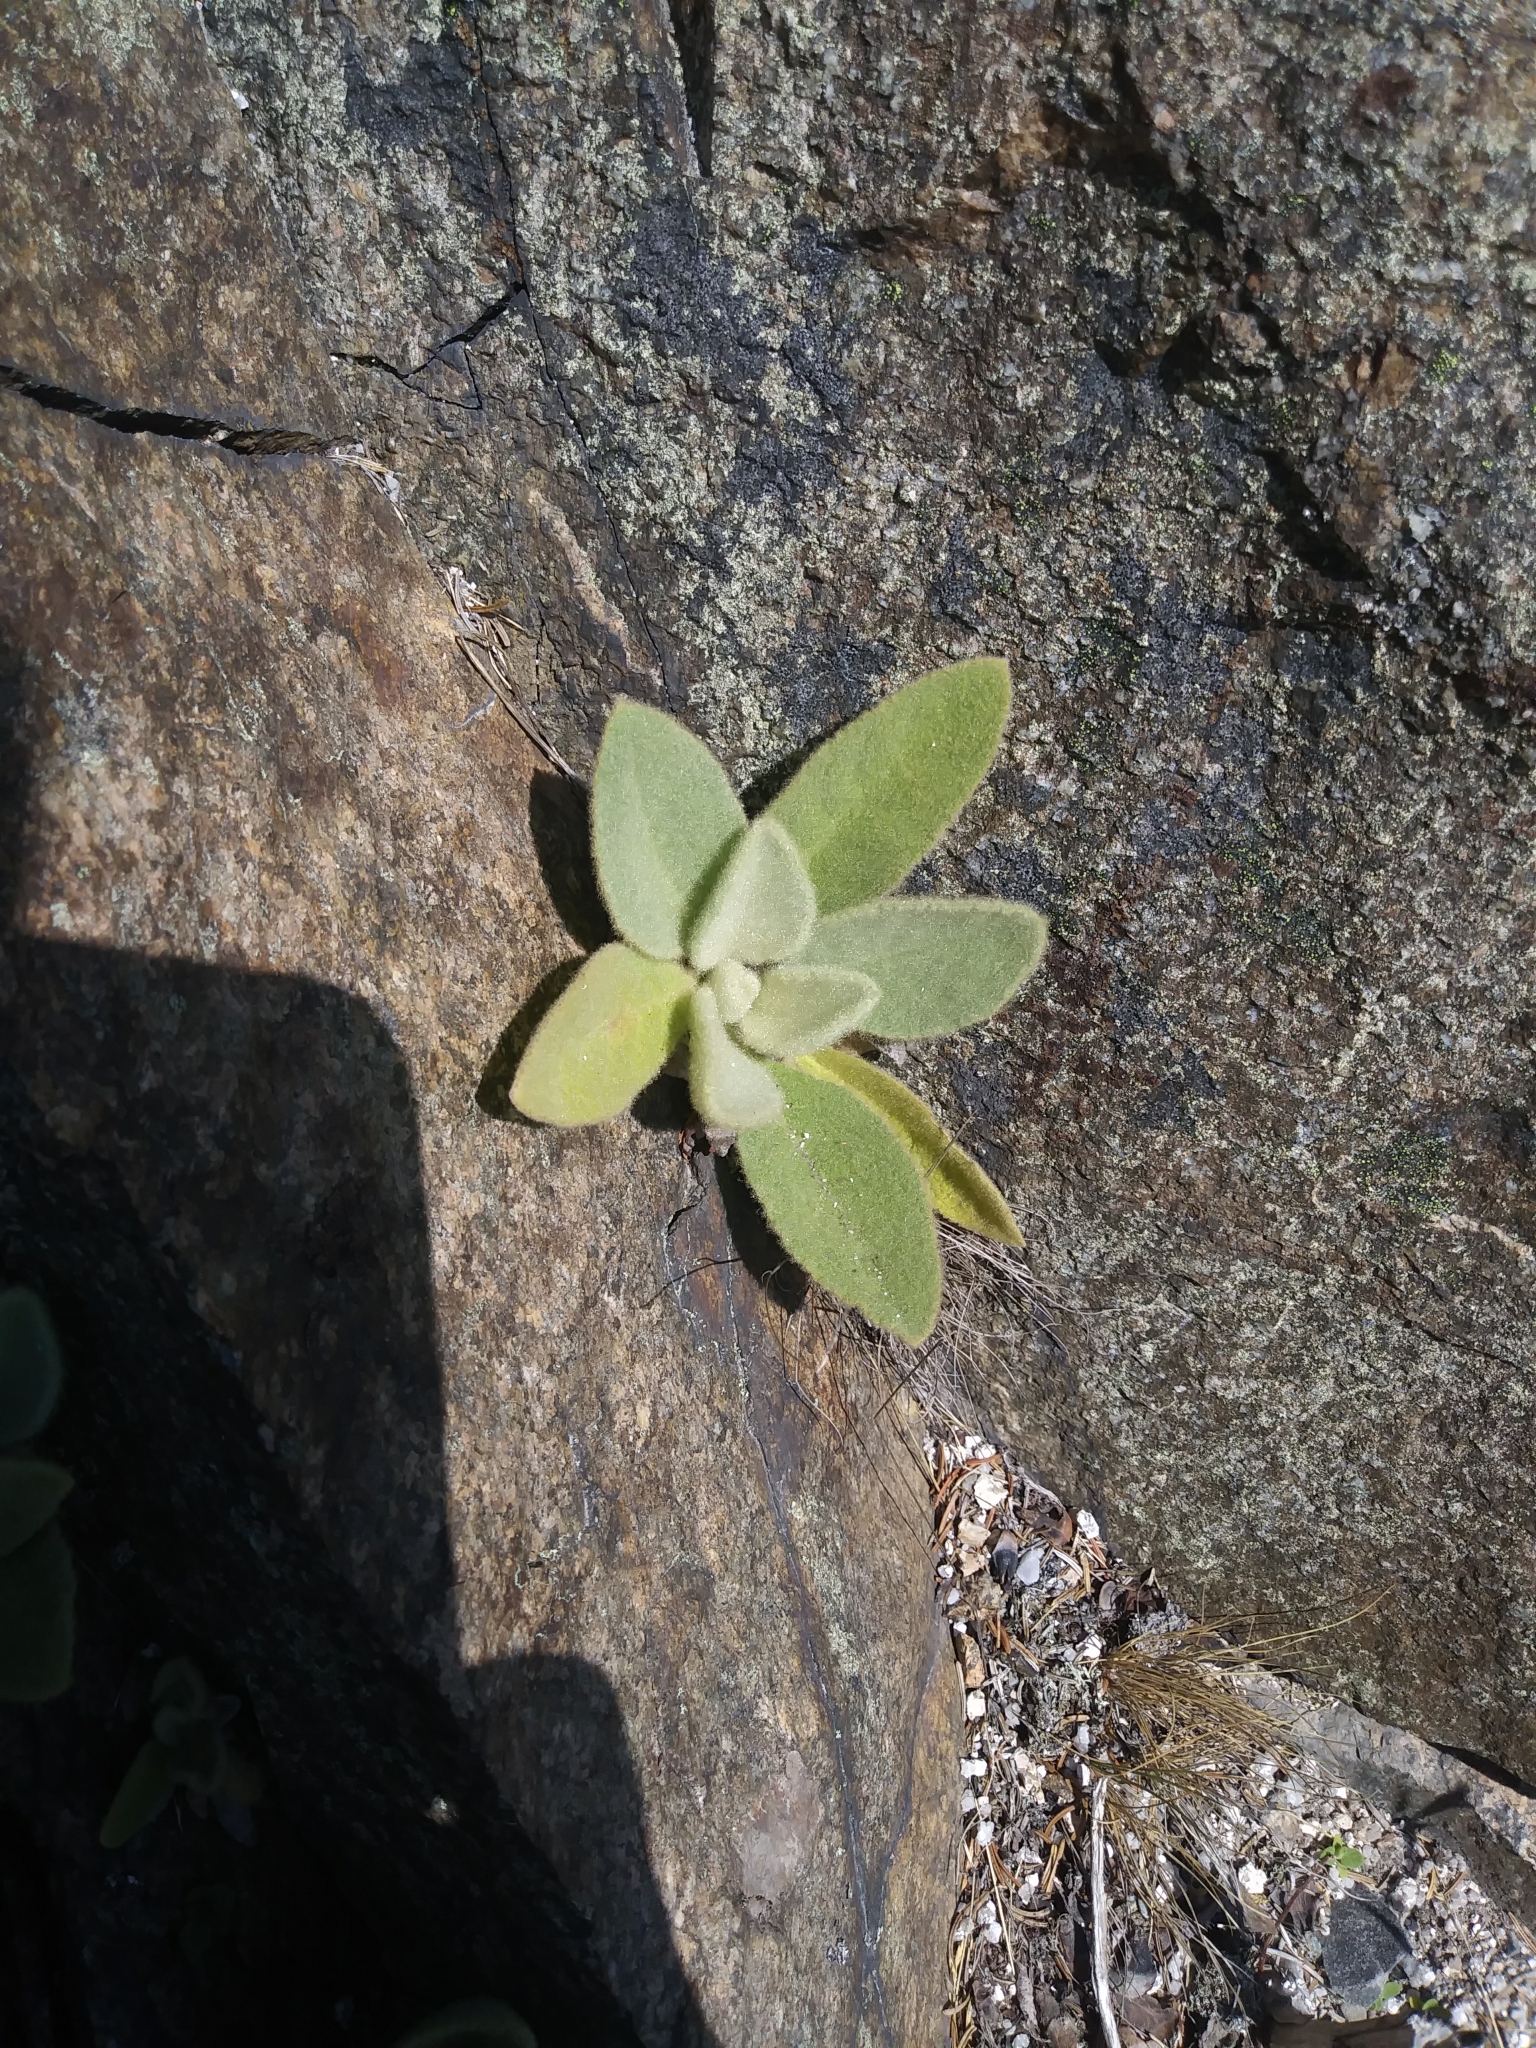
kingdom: Plantae
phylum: Tracheophyta
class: Magnoliopsida
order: Lamiales
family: Scrophulariaceae
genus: Verbascum
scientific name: Verbascum thapsus
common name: Common mullein
